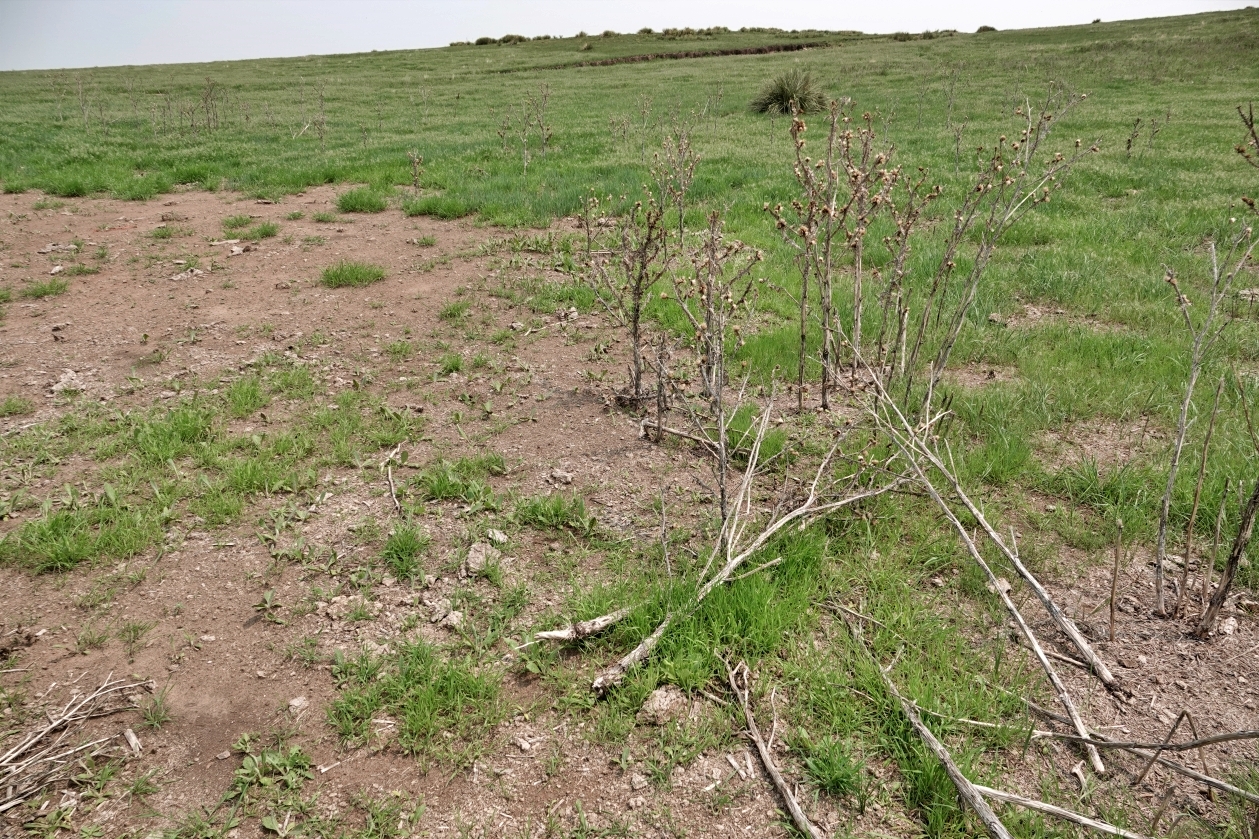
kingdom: Plantae
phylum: Tracheophyta
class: Magnoliopsida
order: Asterales
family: Asteraceae
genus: Onopordum
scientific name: Onopordum acanthium
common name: Scotch thistle
